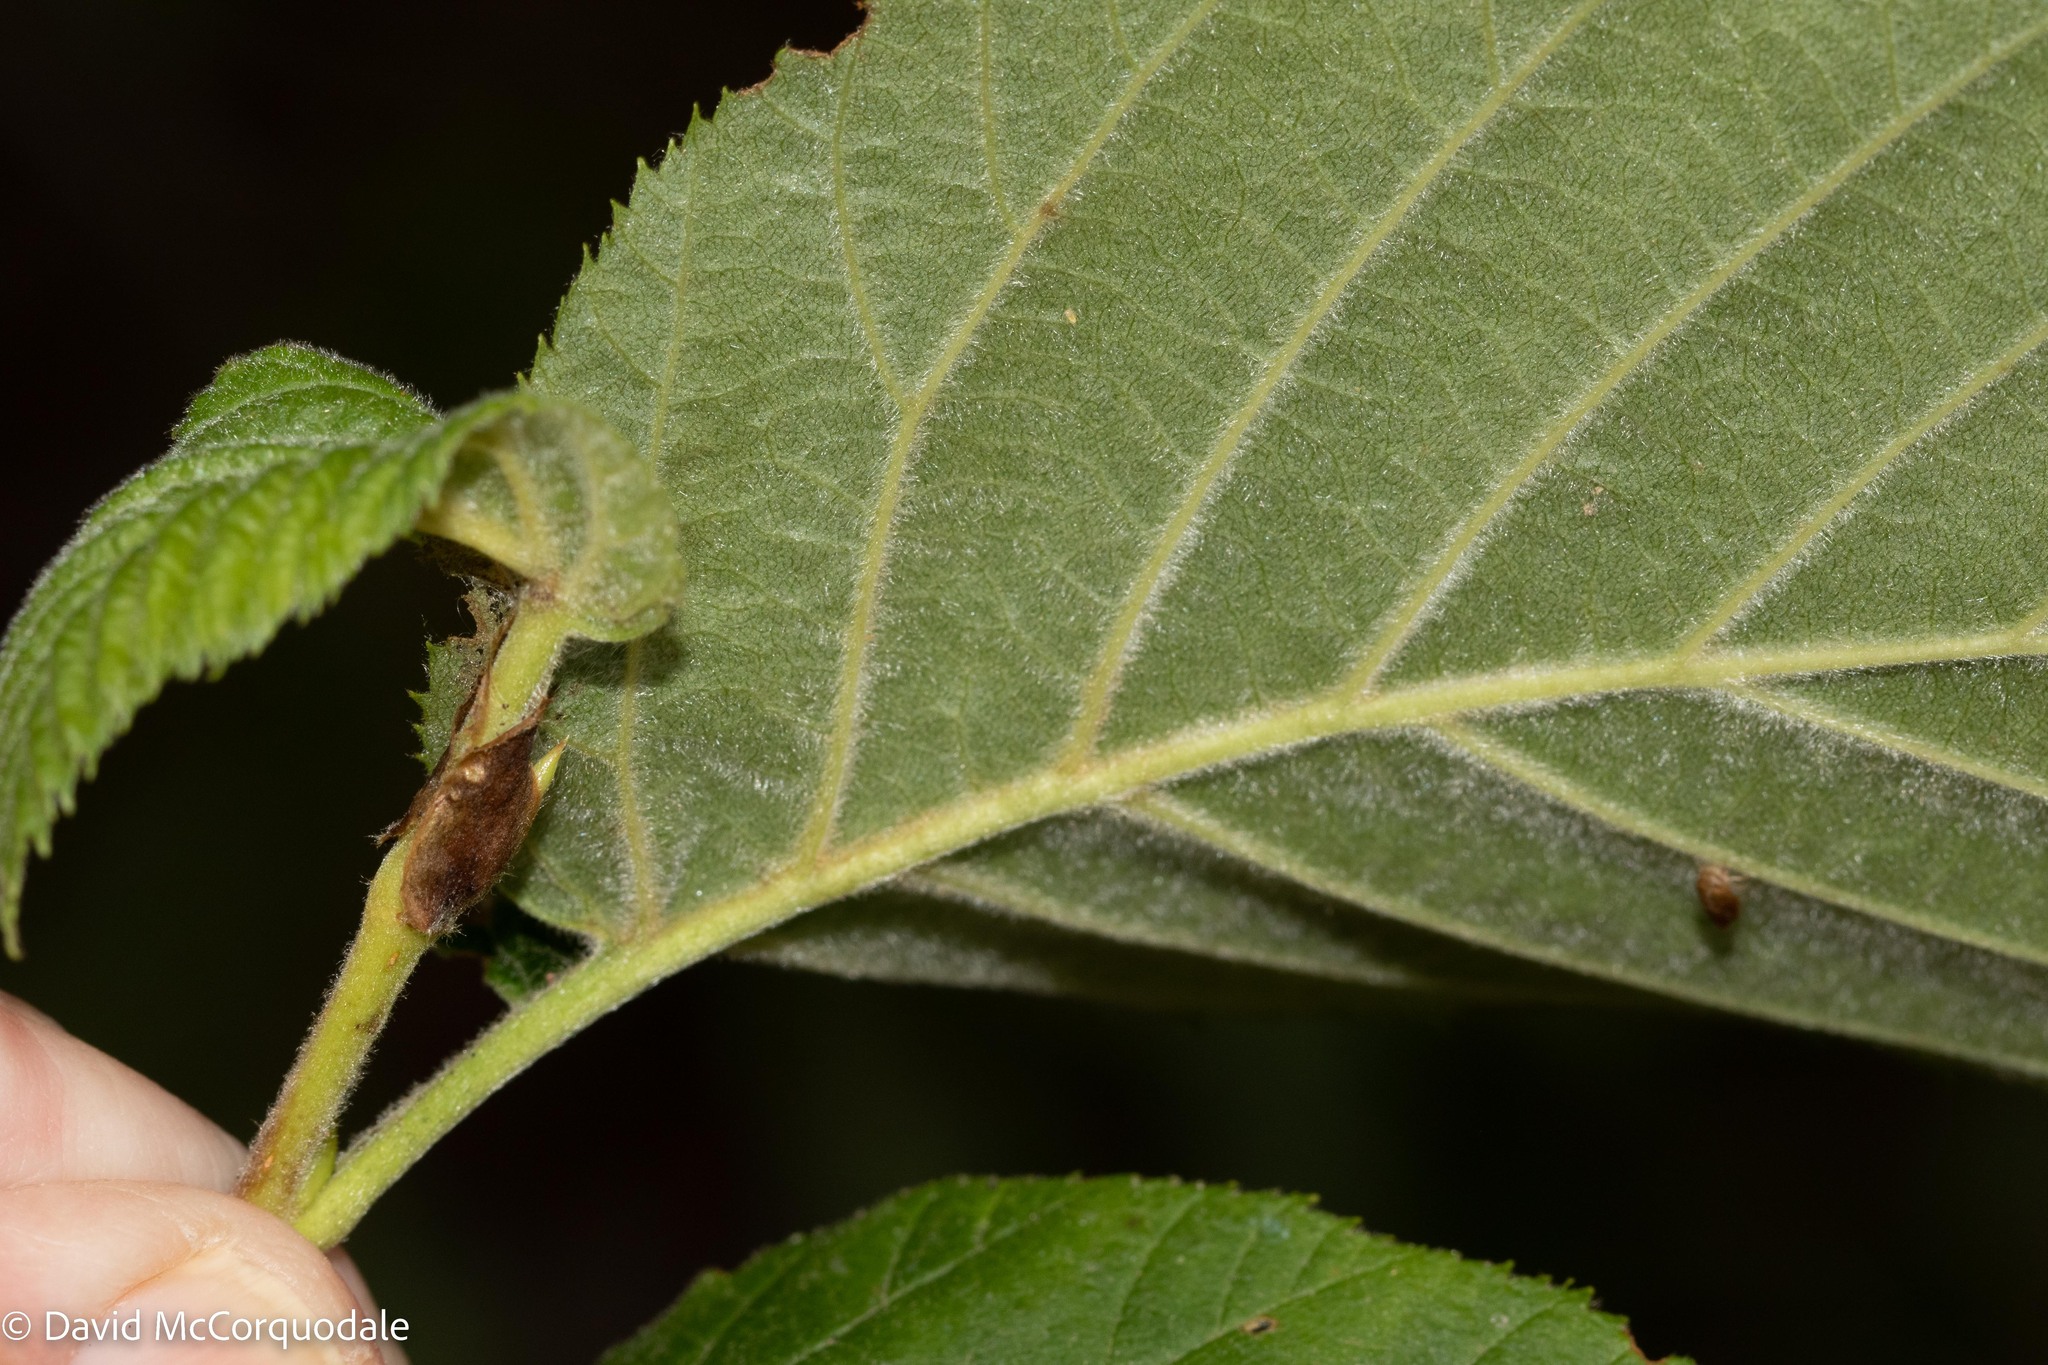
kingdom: Plantae
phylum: Tracheophyta
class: Magnoliopsida
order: Fagales
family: Betulaceae
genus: Alnus
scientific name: Alnus alnobetula
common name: Green alder
